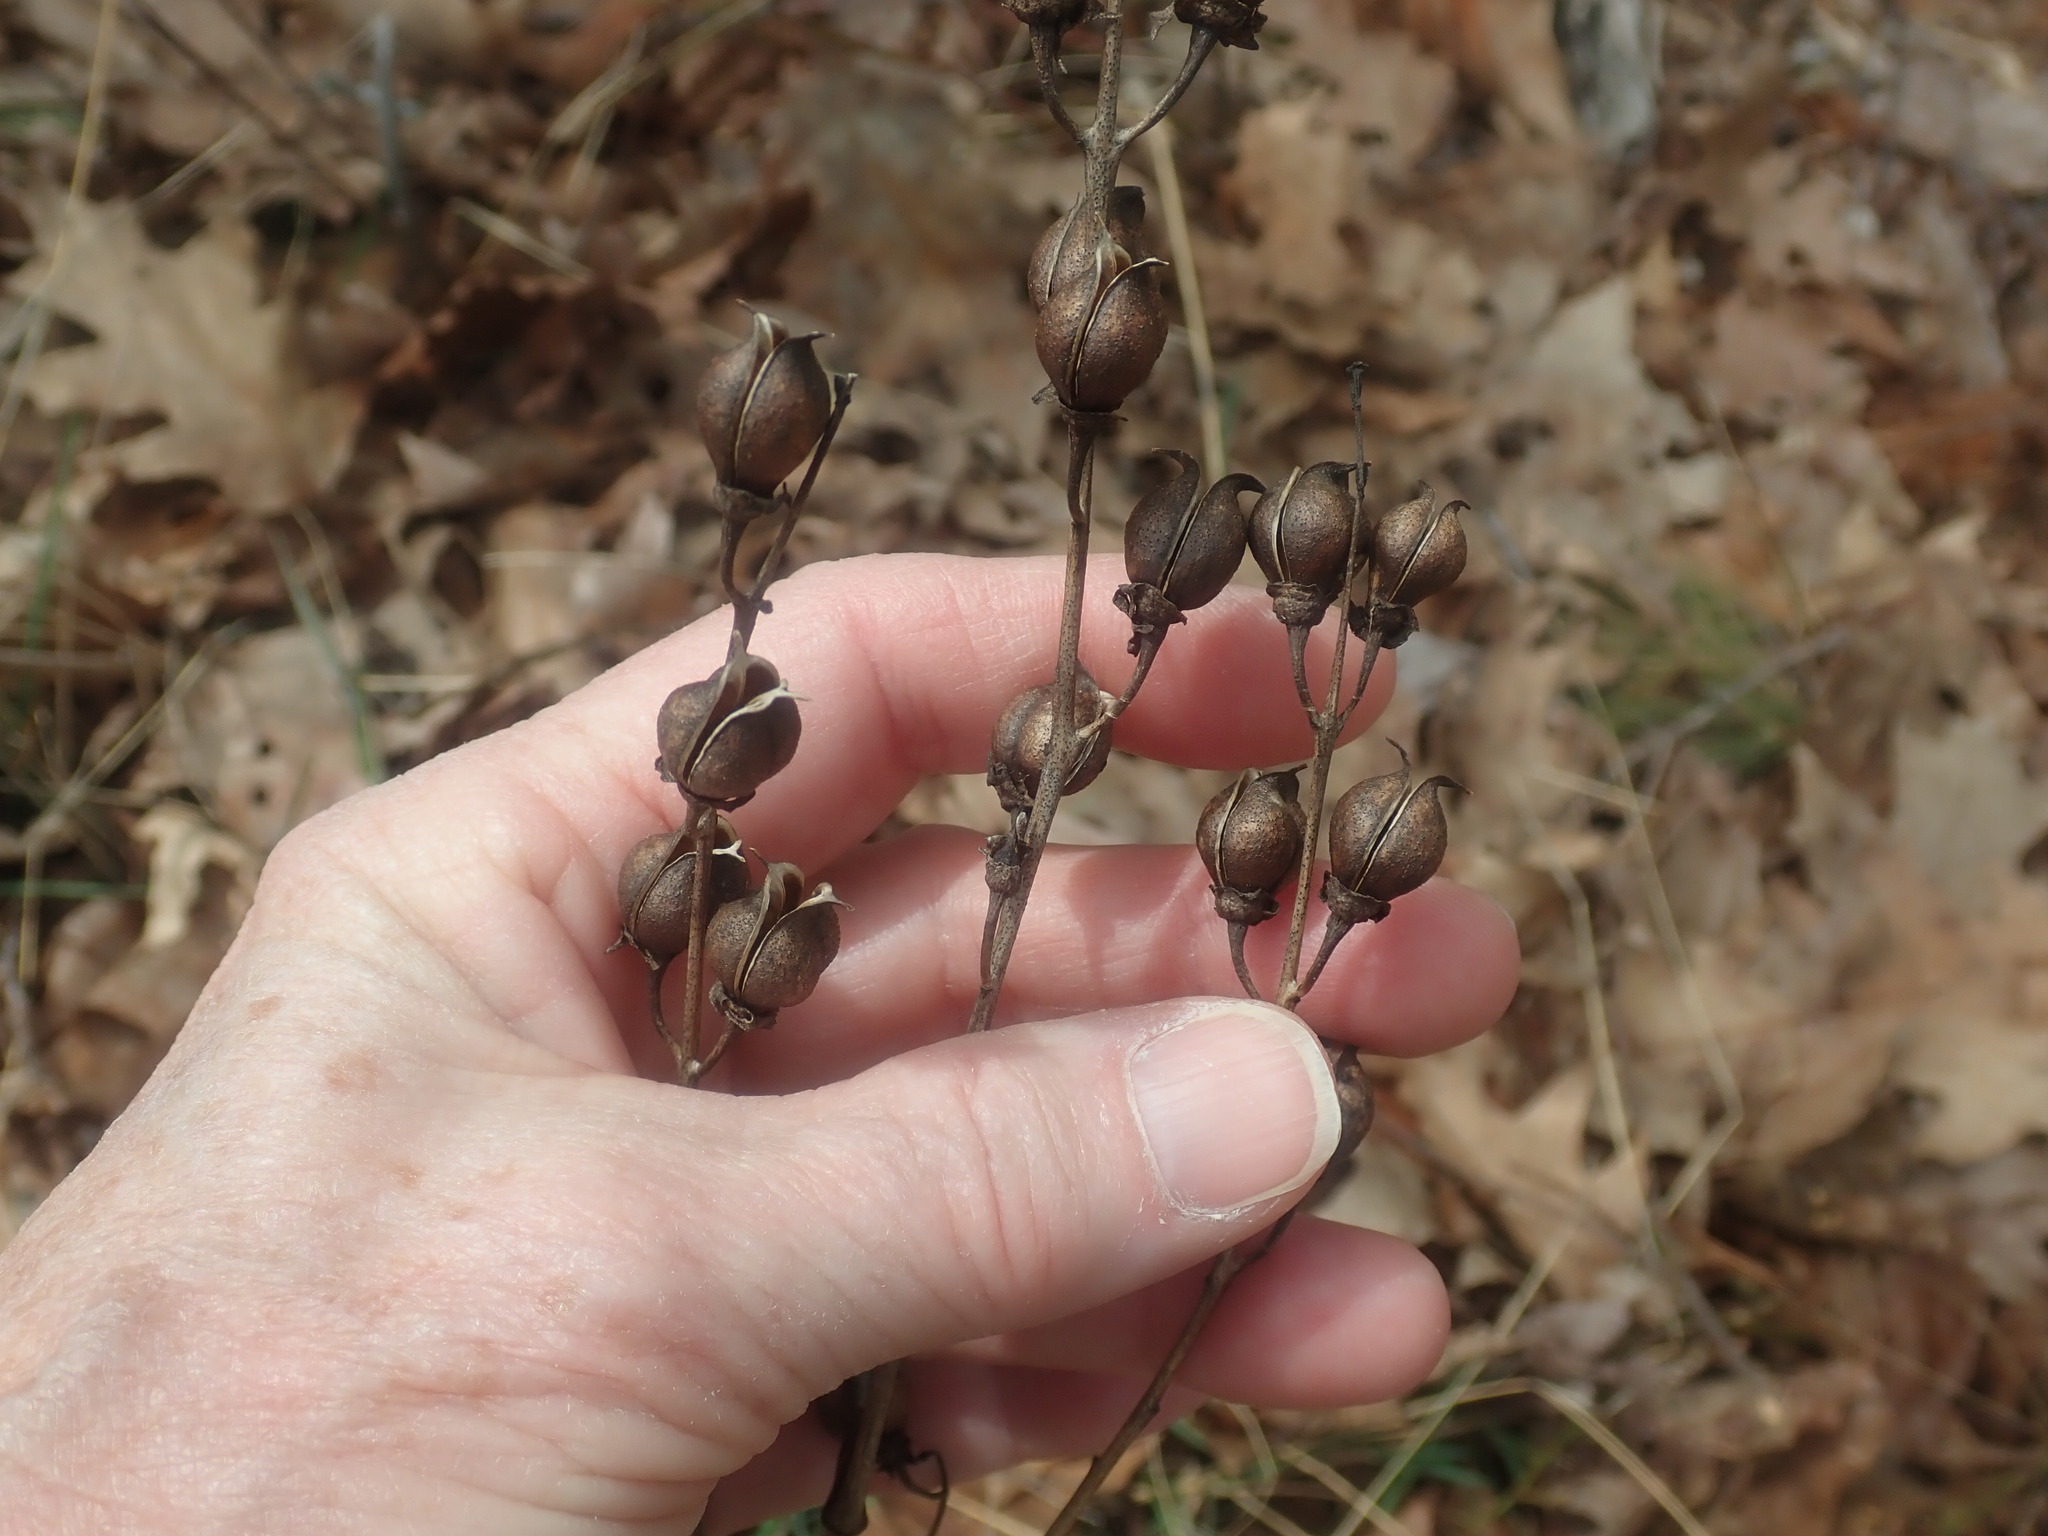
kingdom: Plantae
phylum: Tracheophyta
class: Magnoliopsida
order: Lamiales
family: Orobanchaceae
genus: Aureolaria
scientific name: Aureolaria flava
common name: Smooth false foxglove
